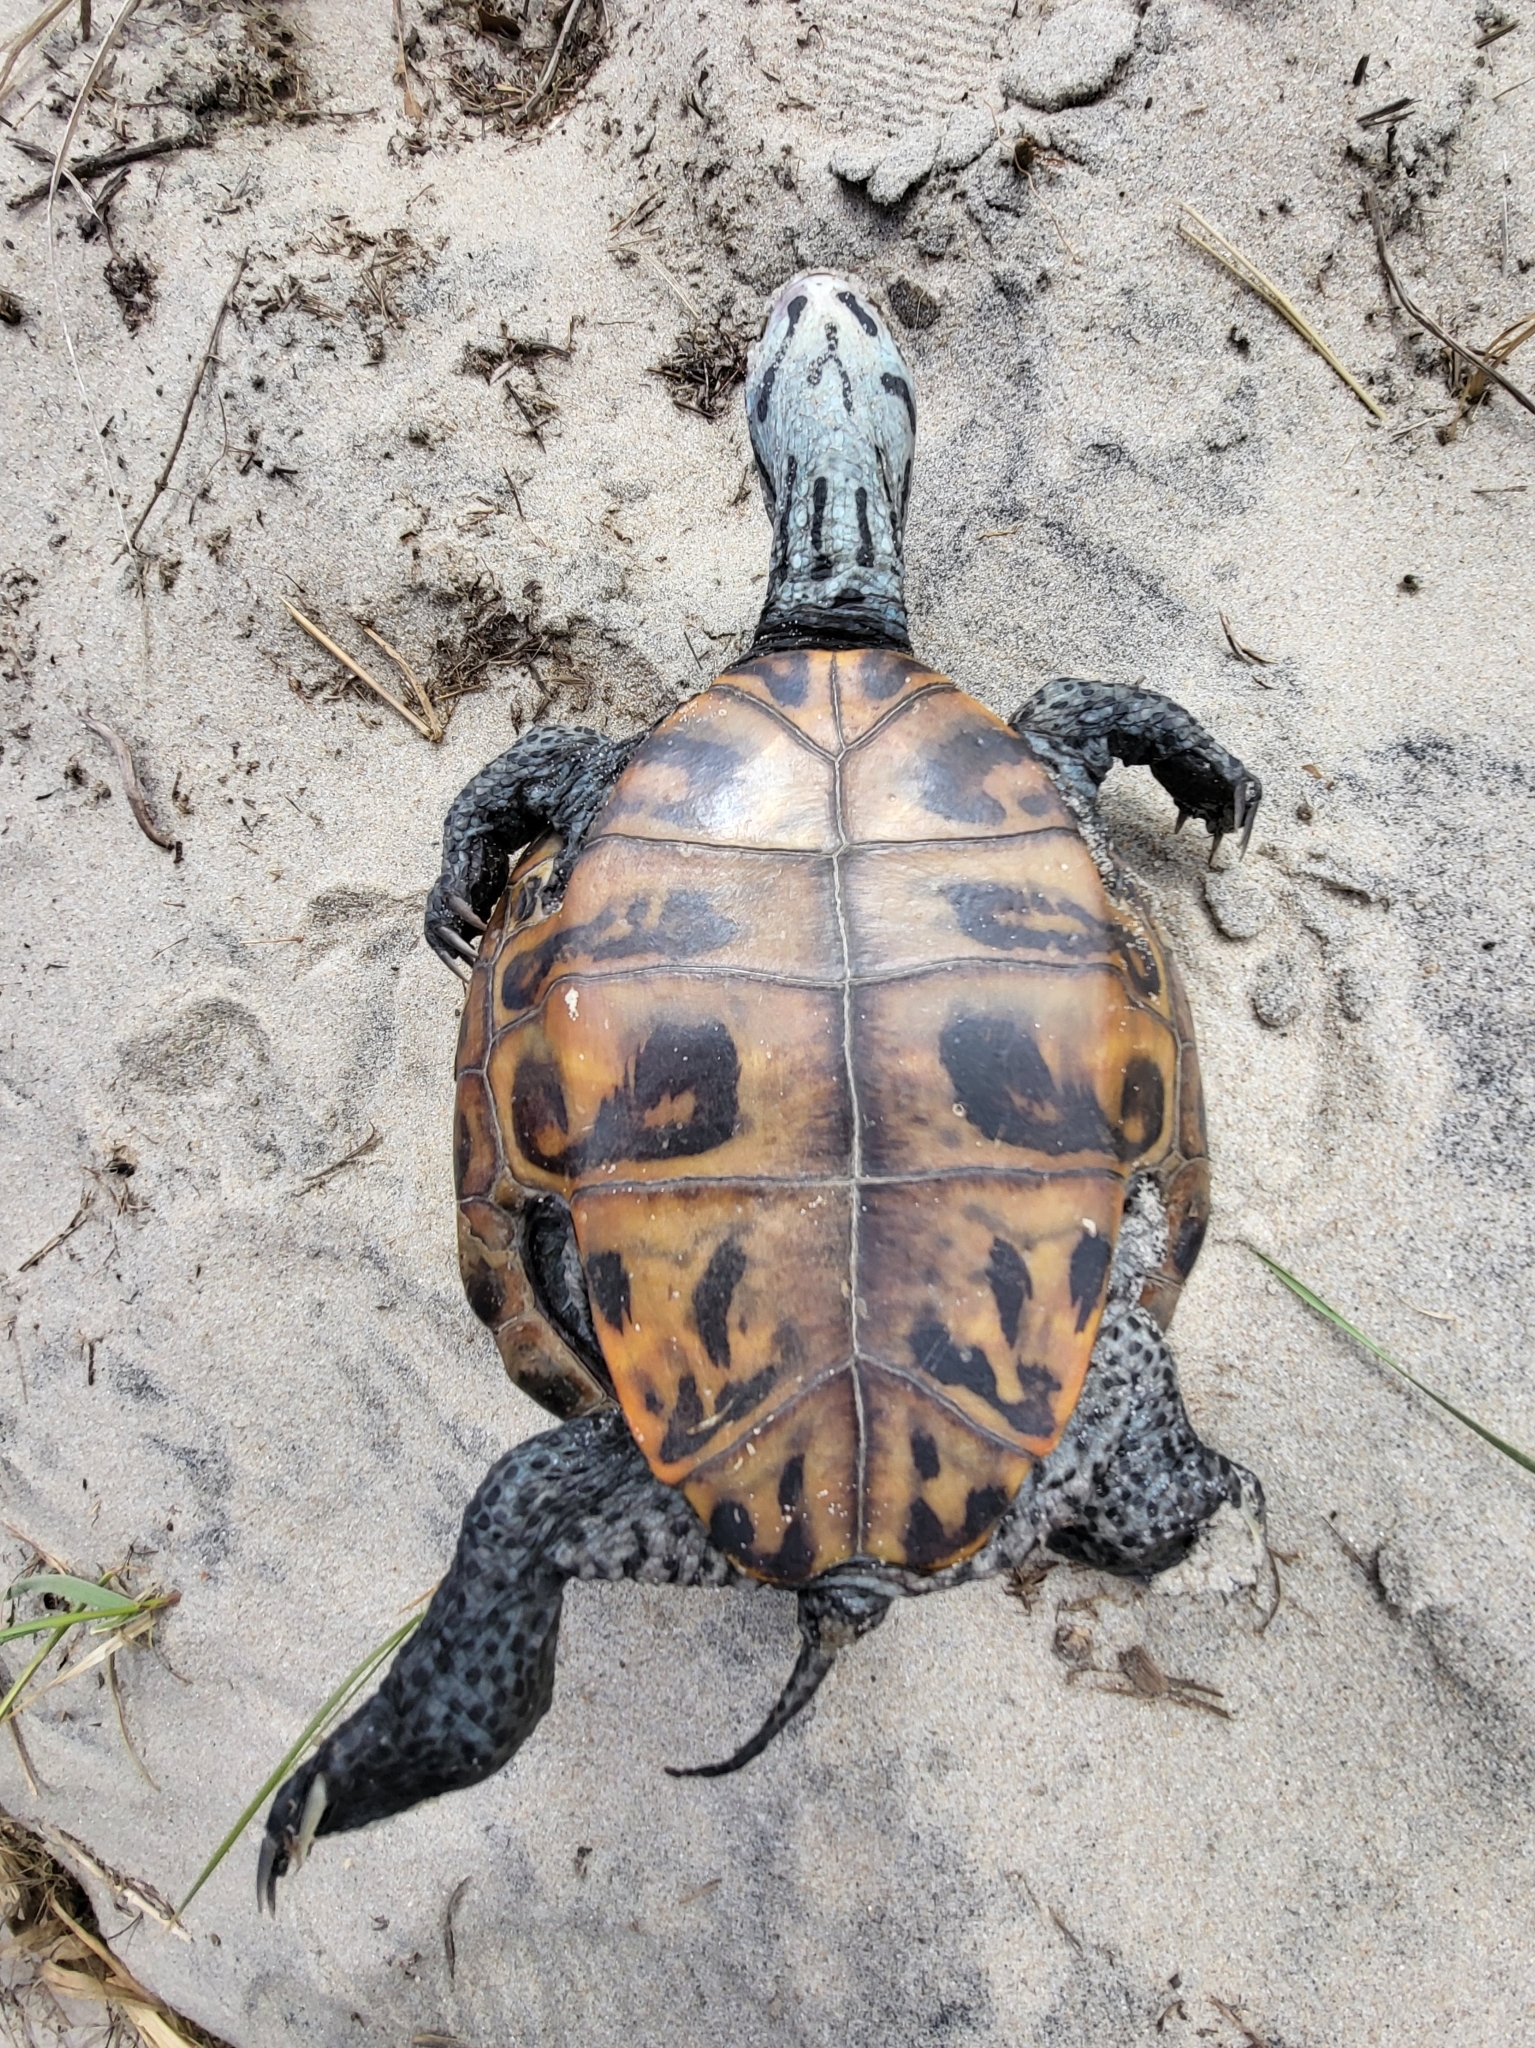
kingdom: Animalia
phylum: Chordata
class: Testudines
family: Emydidae
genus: Malaclemys
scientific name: Malaclemys terrapin
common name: Diamondback terrapin
